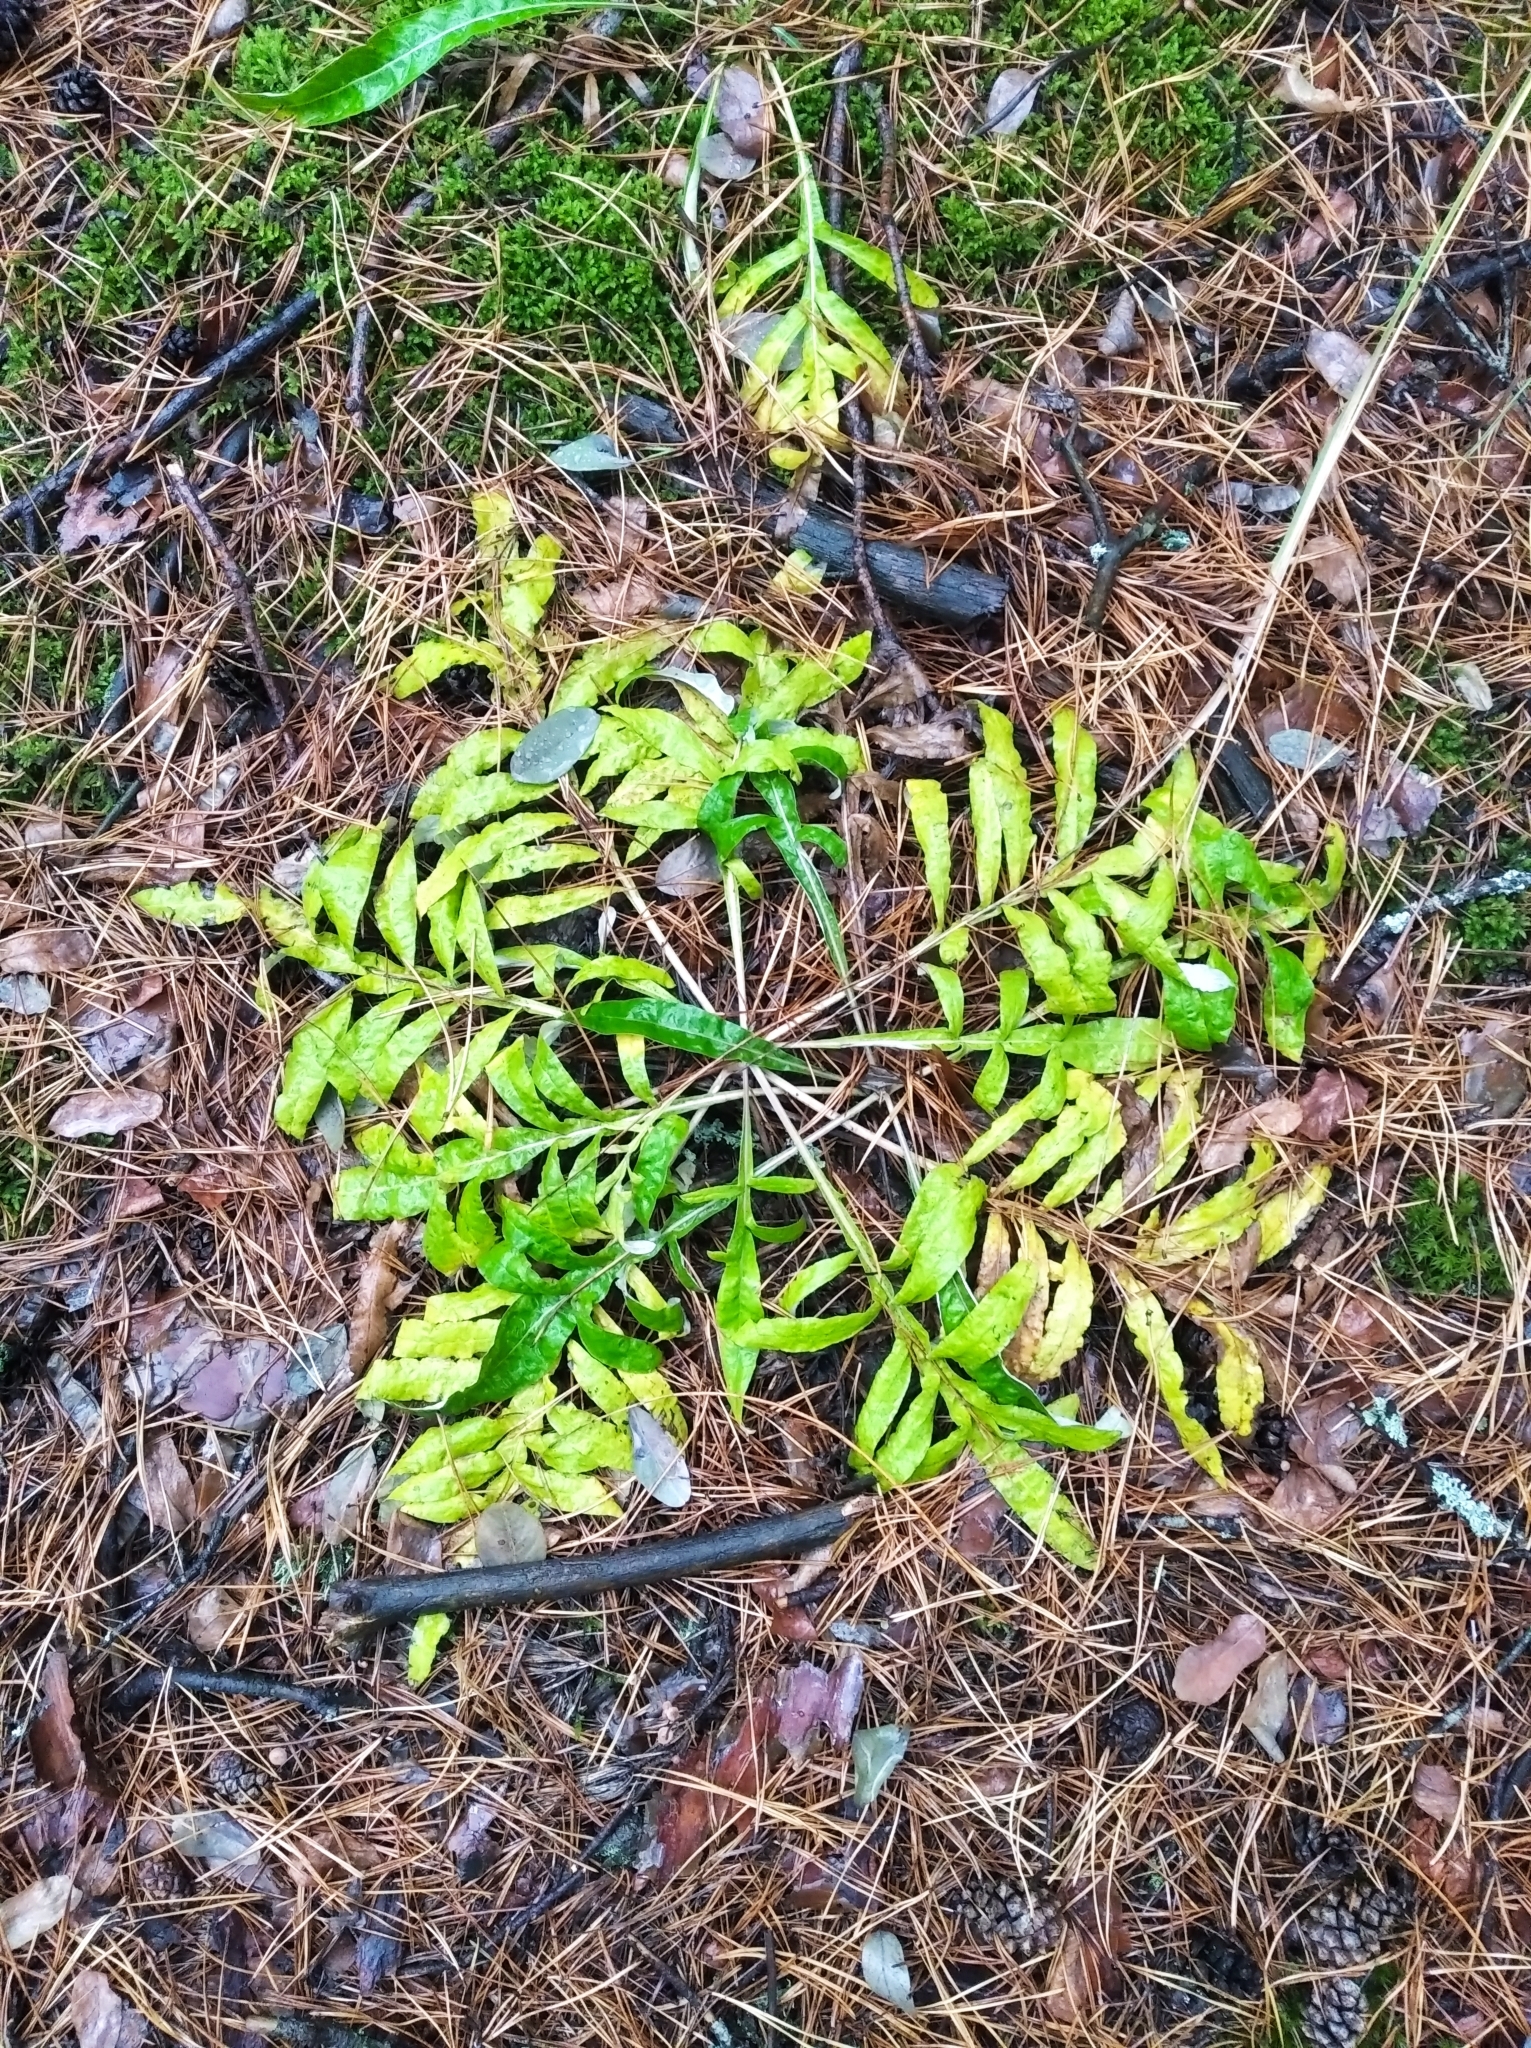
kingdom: Plantae
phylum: Tracheophyta
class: Magnoliopsida
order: Asterales
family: Asteraceae
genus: Jurinea
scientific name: Jurinea cyanoides
